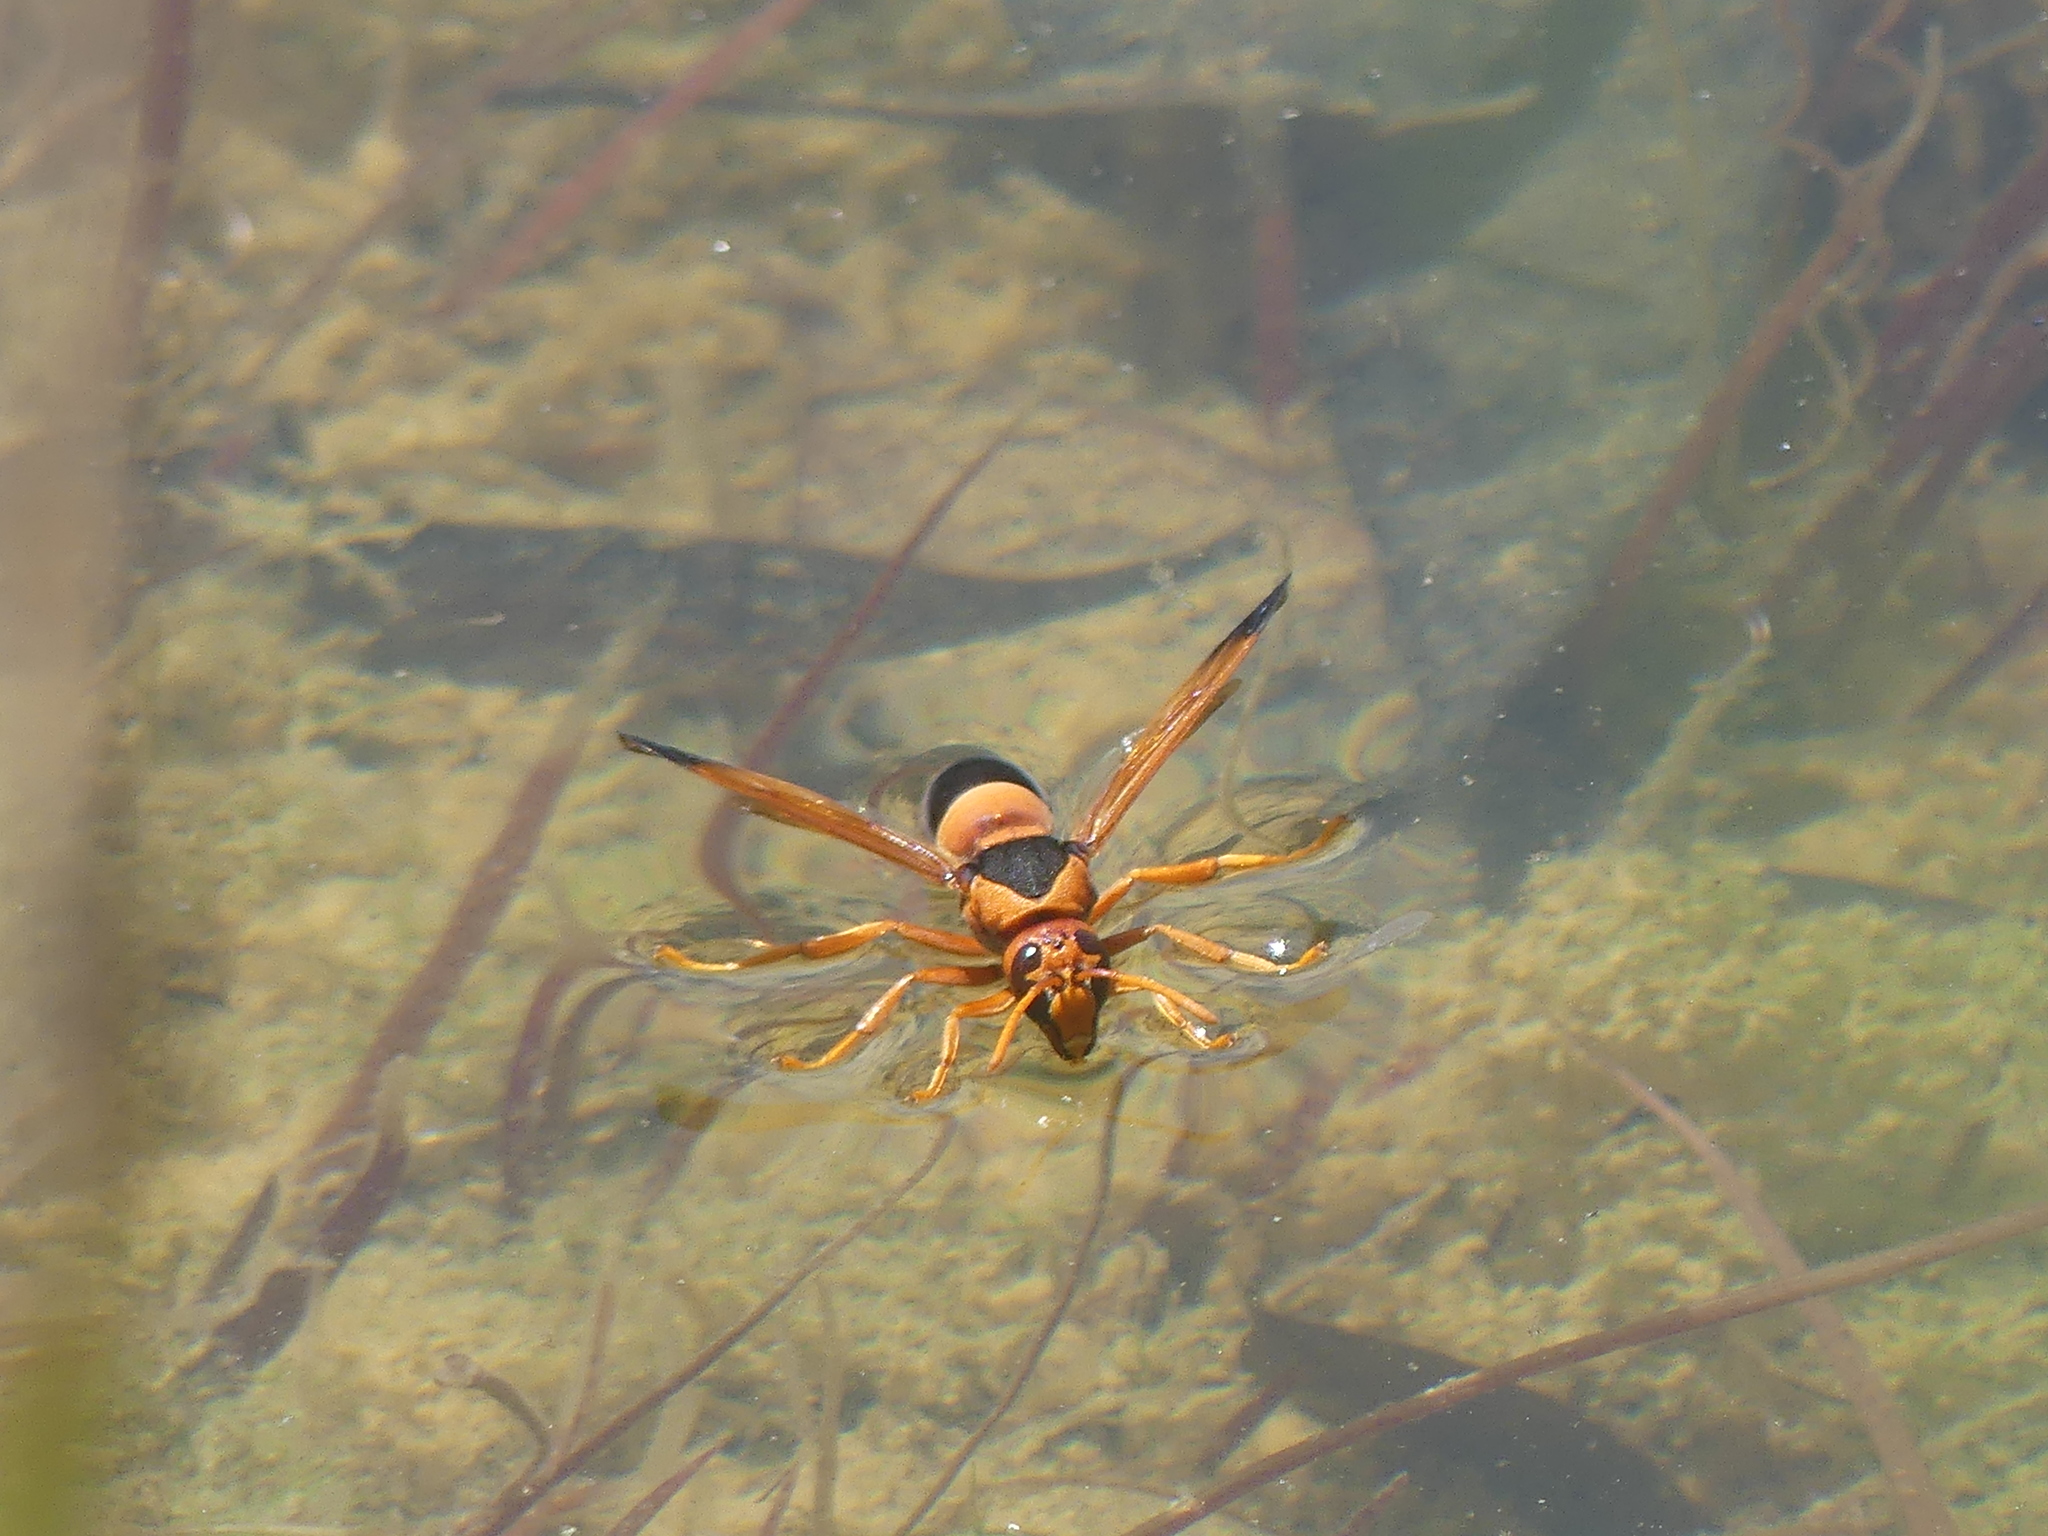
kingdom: Animalia
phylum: Arthropoda
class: Insecta
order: Hymenoptera
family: Eumenidae
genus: Abispa
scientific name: Abispa ephippium
